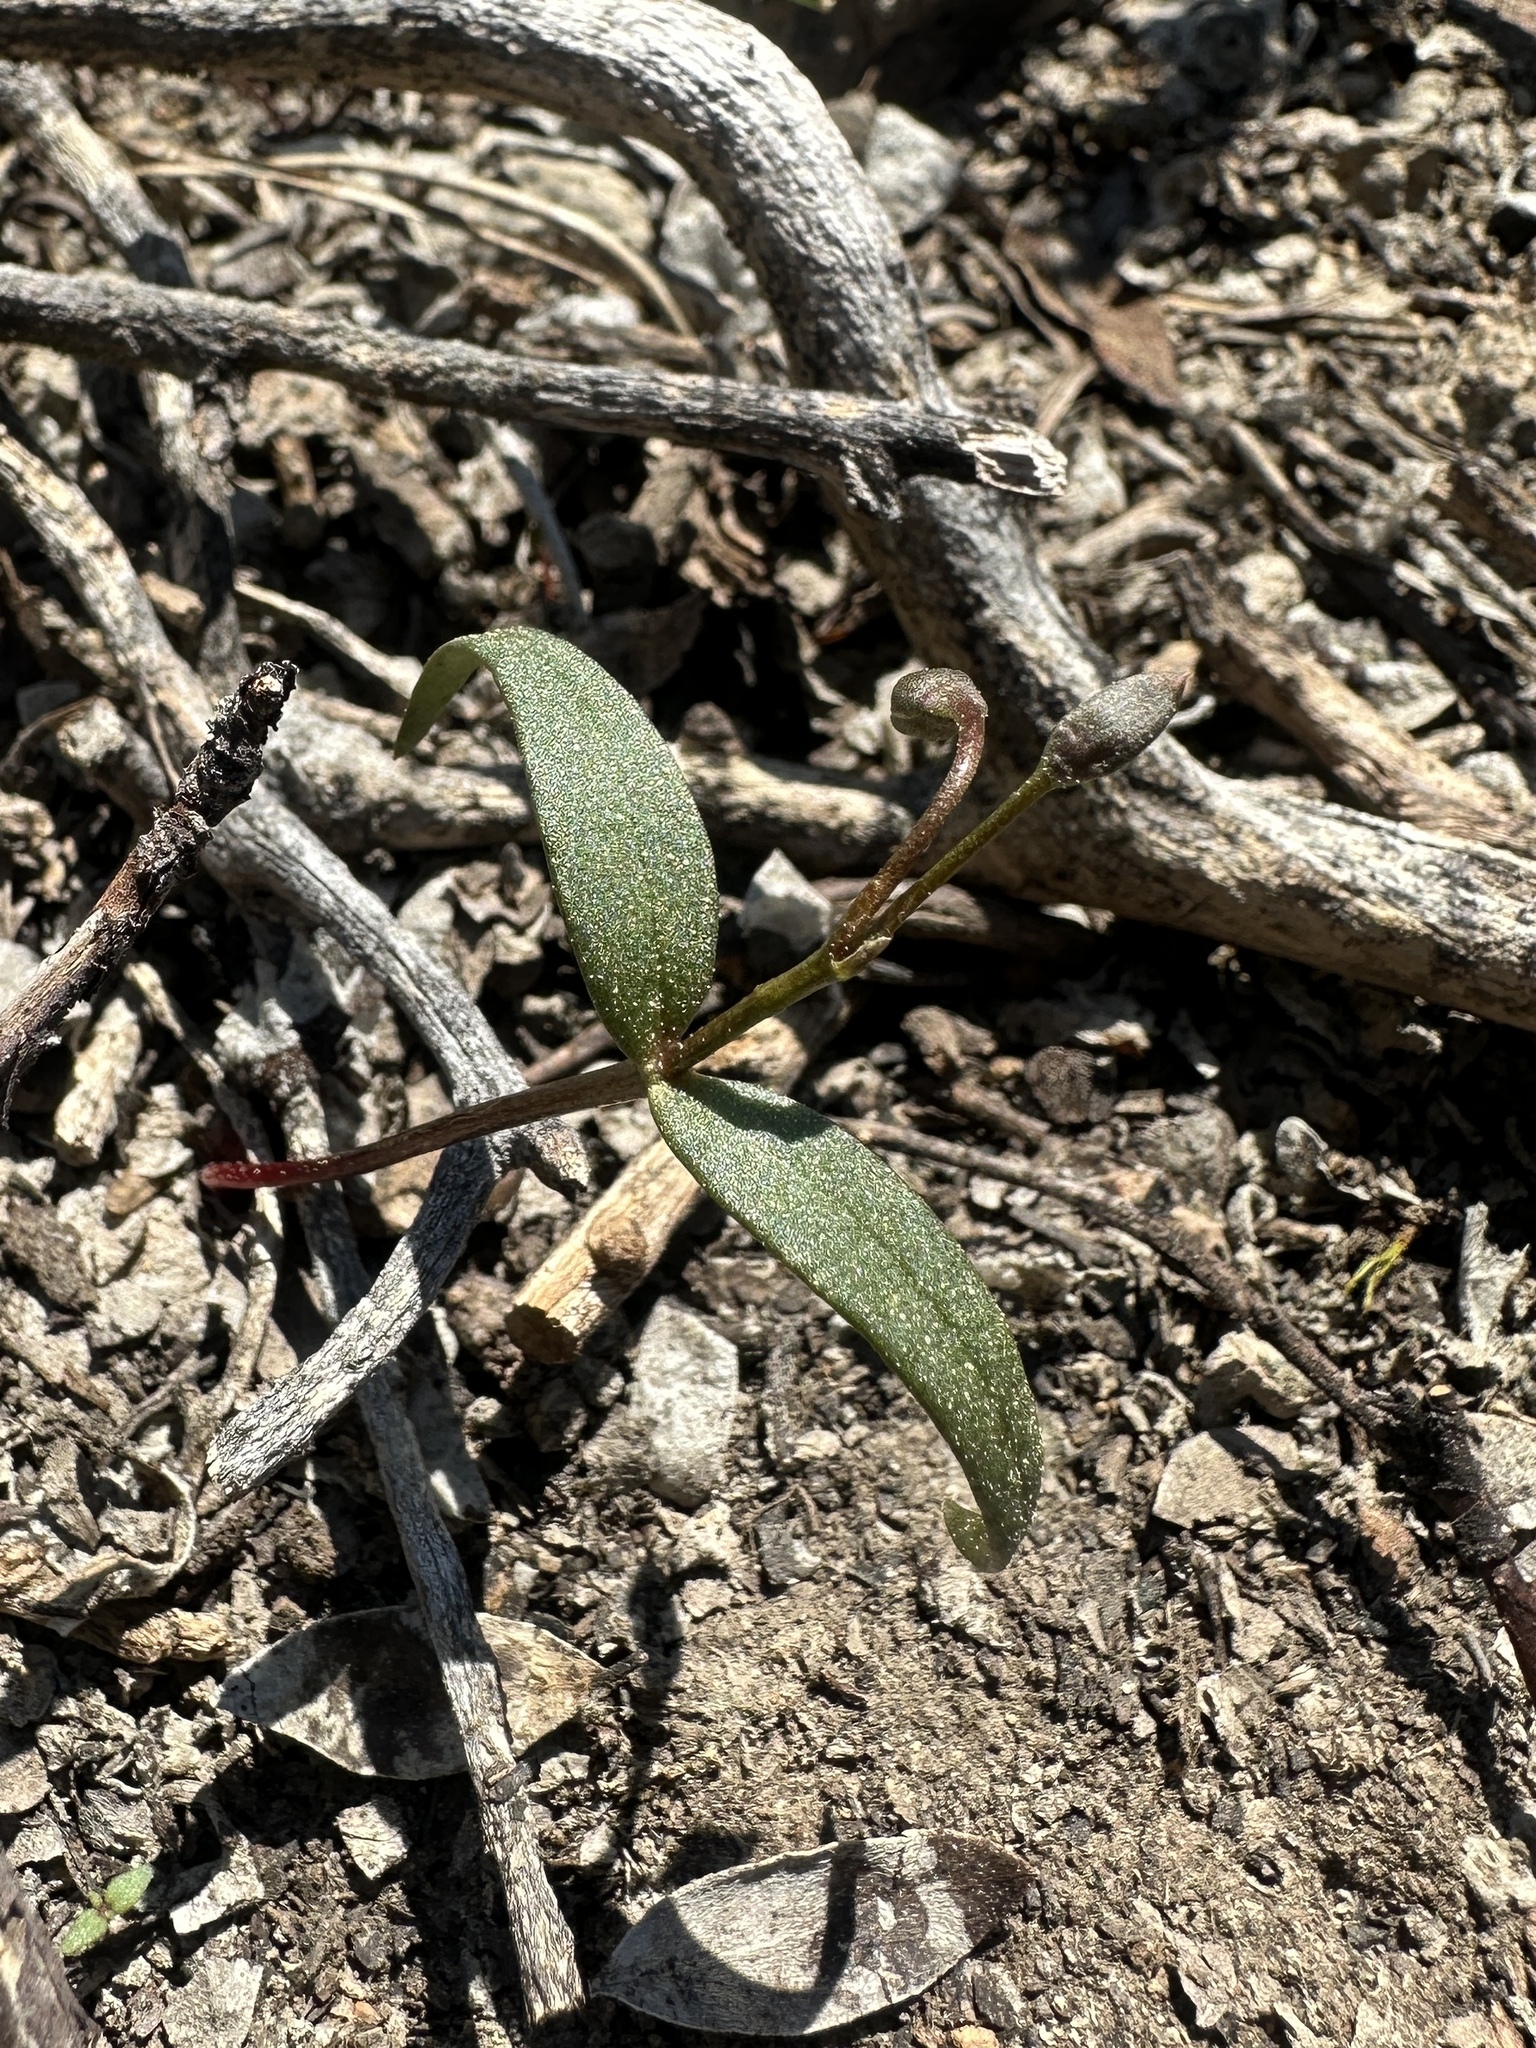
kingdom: Plantae
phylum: Tracheophyta
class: Magnoliopsida
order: Caryophyllales
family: Montiaceae
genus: Claytonia
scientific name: Claytonia lanceolata
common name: Western spring-beauty
